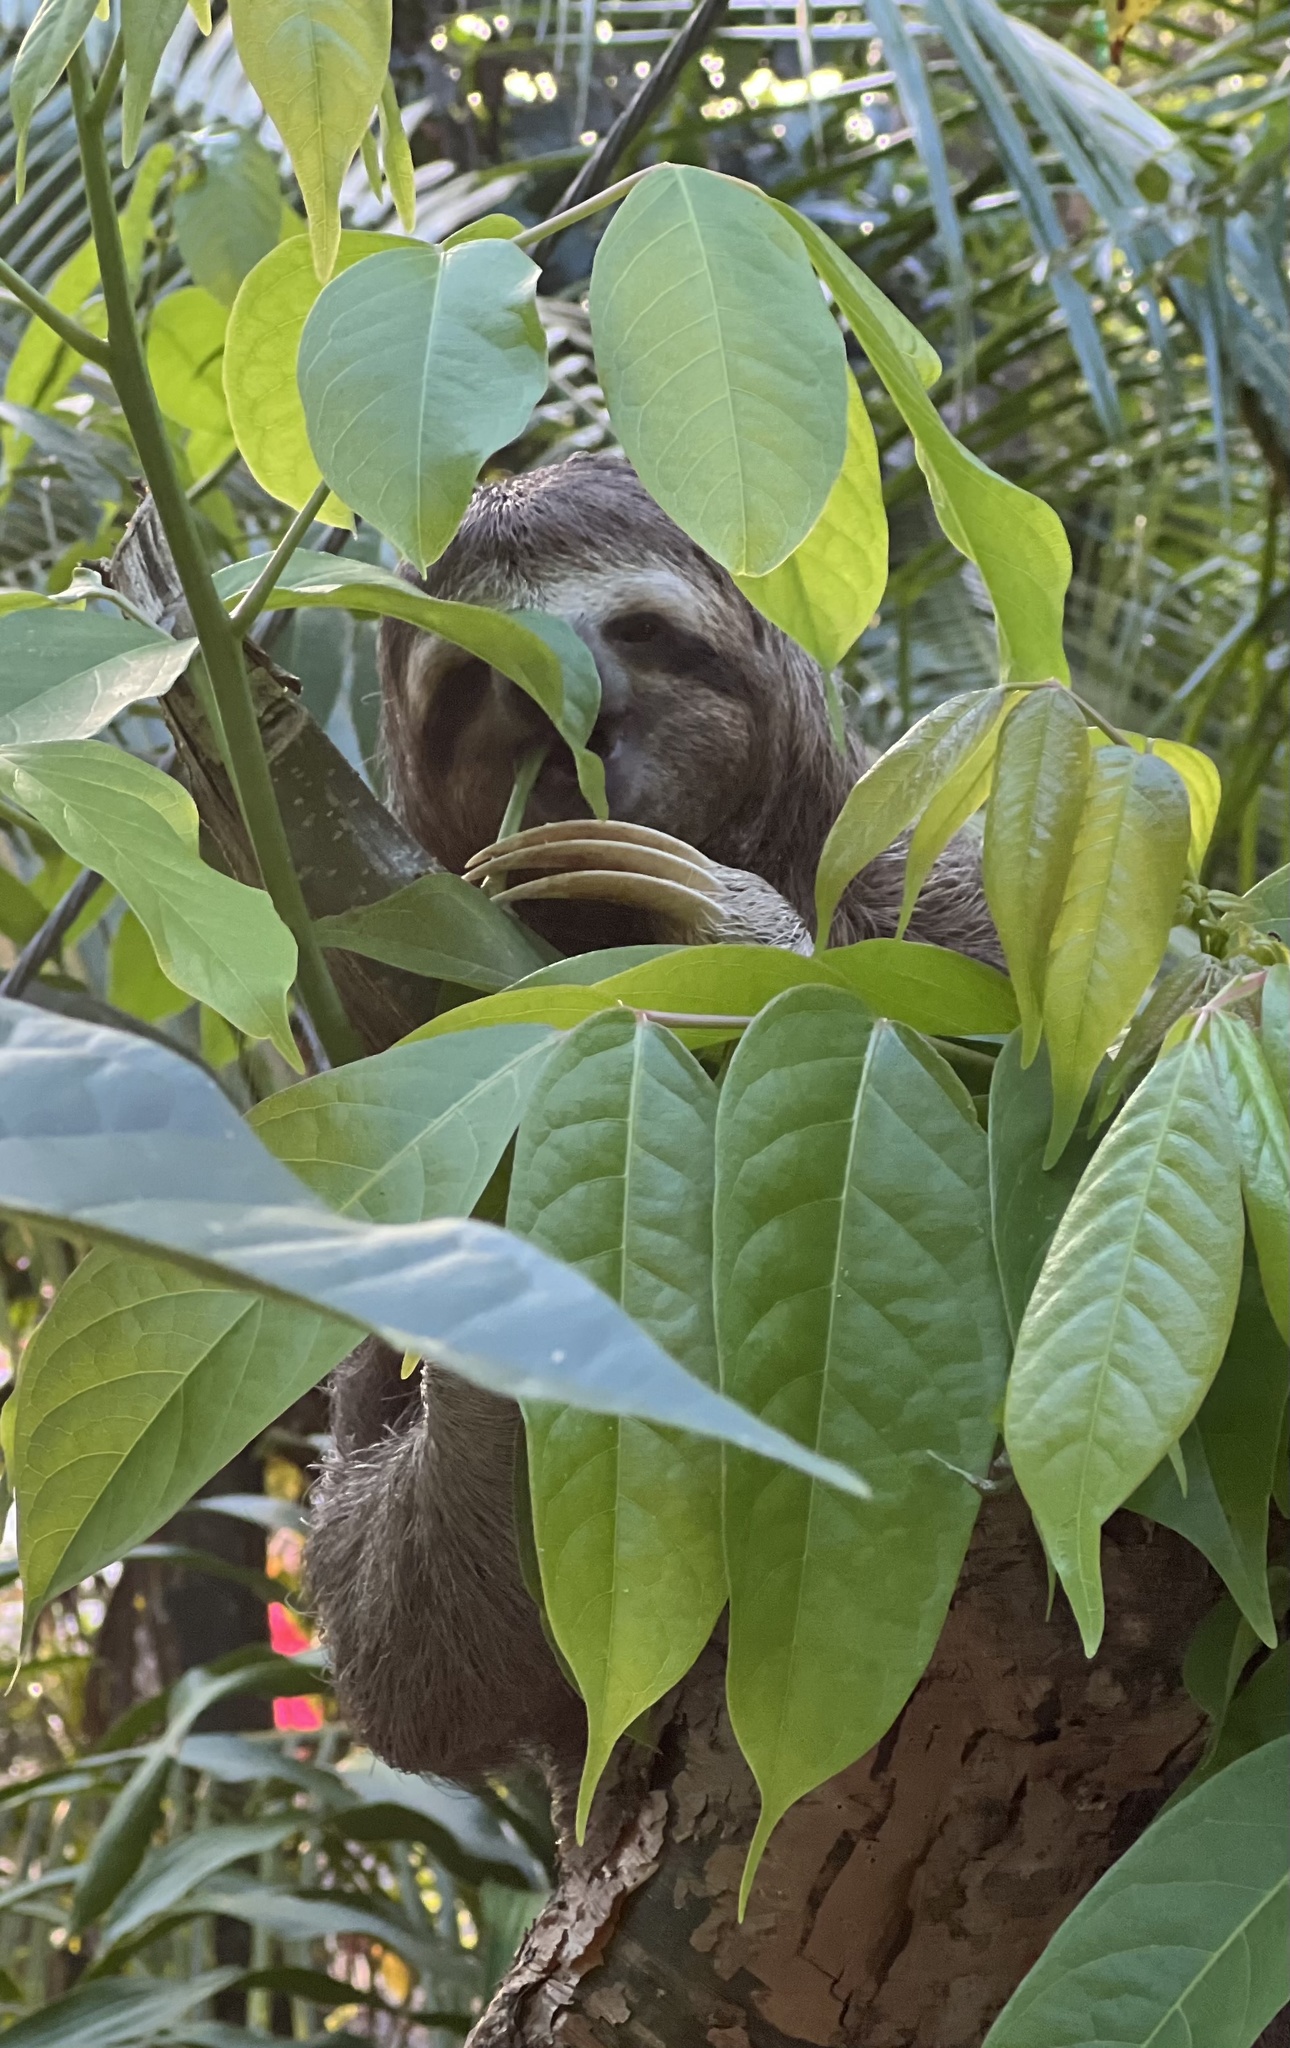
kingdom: Animalia
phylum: Chordata
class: Mammalia
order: Pilosa
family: Bradypodidae
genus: Bradypus
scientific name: Bradypus variegatus
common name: Brown-throated three-toed sloth
